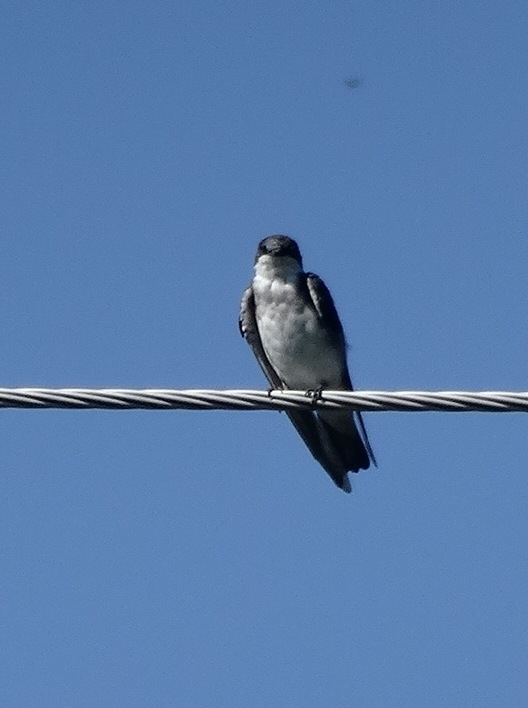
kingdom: Animalia
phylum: Chordata
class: Aves
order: Passeriformes
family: Hirundinidae
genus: Tachycineta
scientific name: Tachycineta bicolor
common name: Tree swallow
